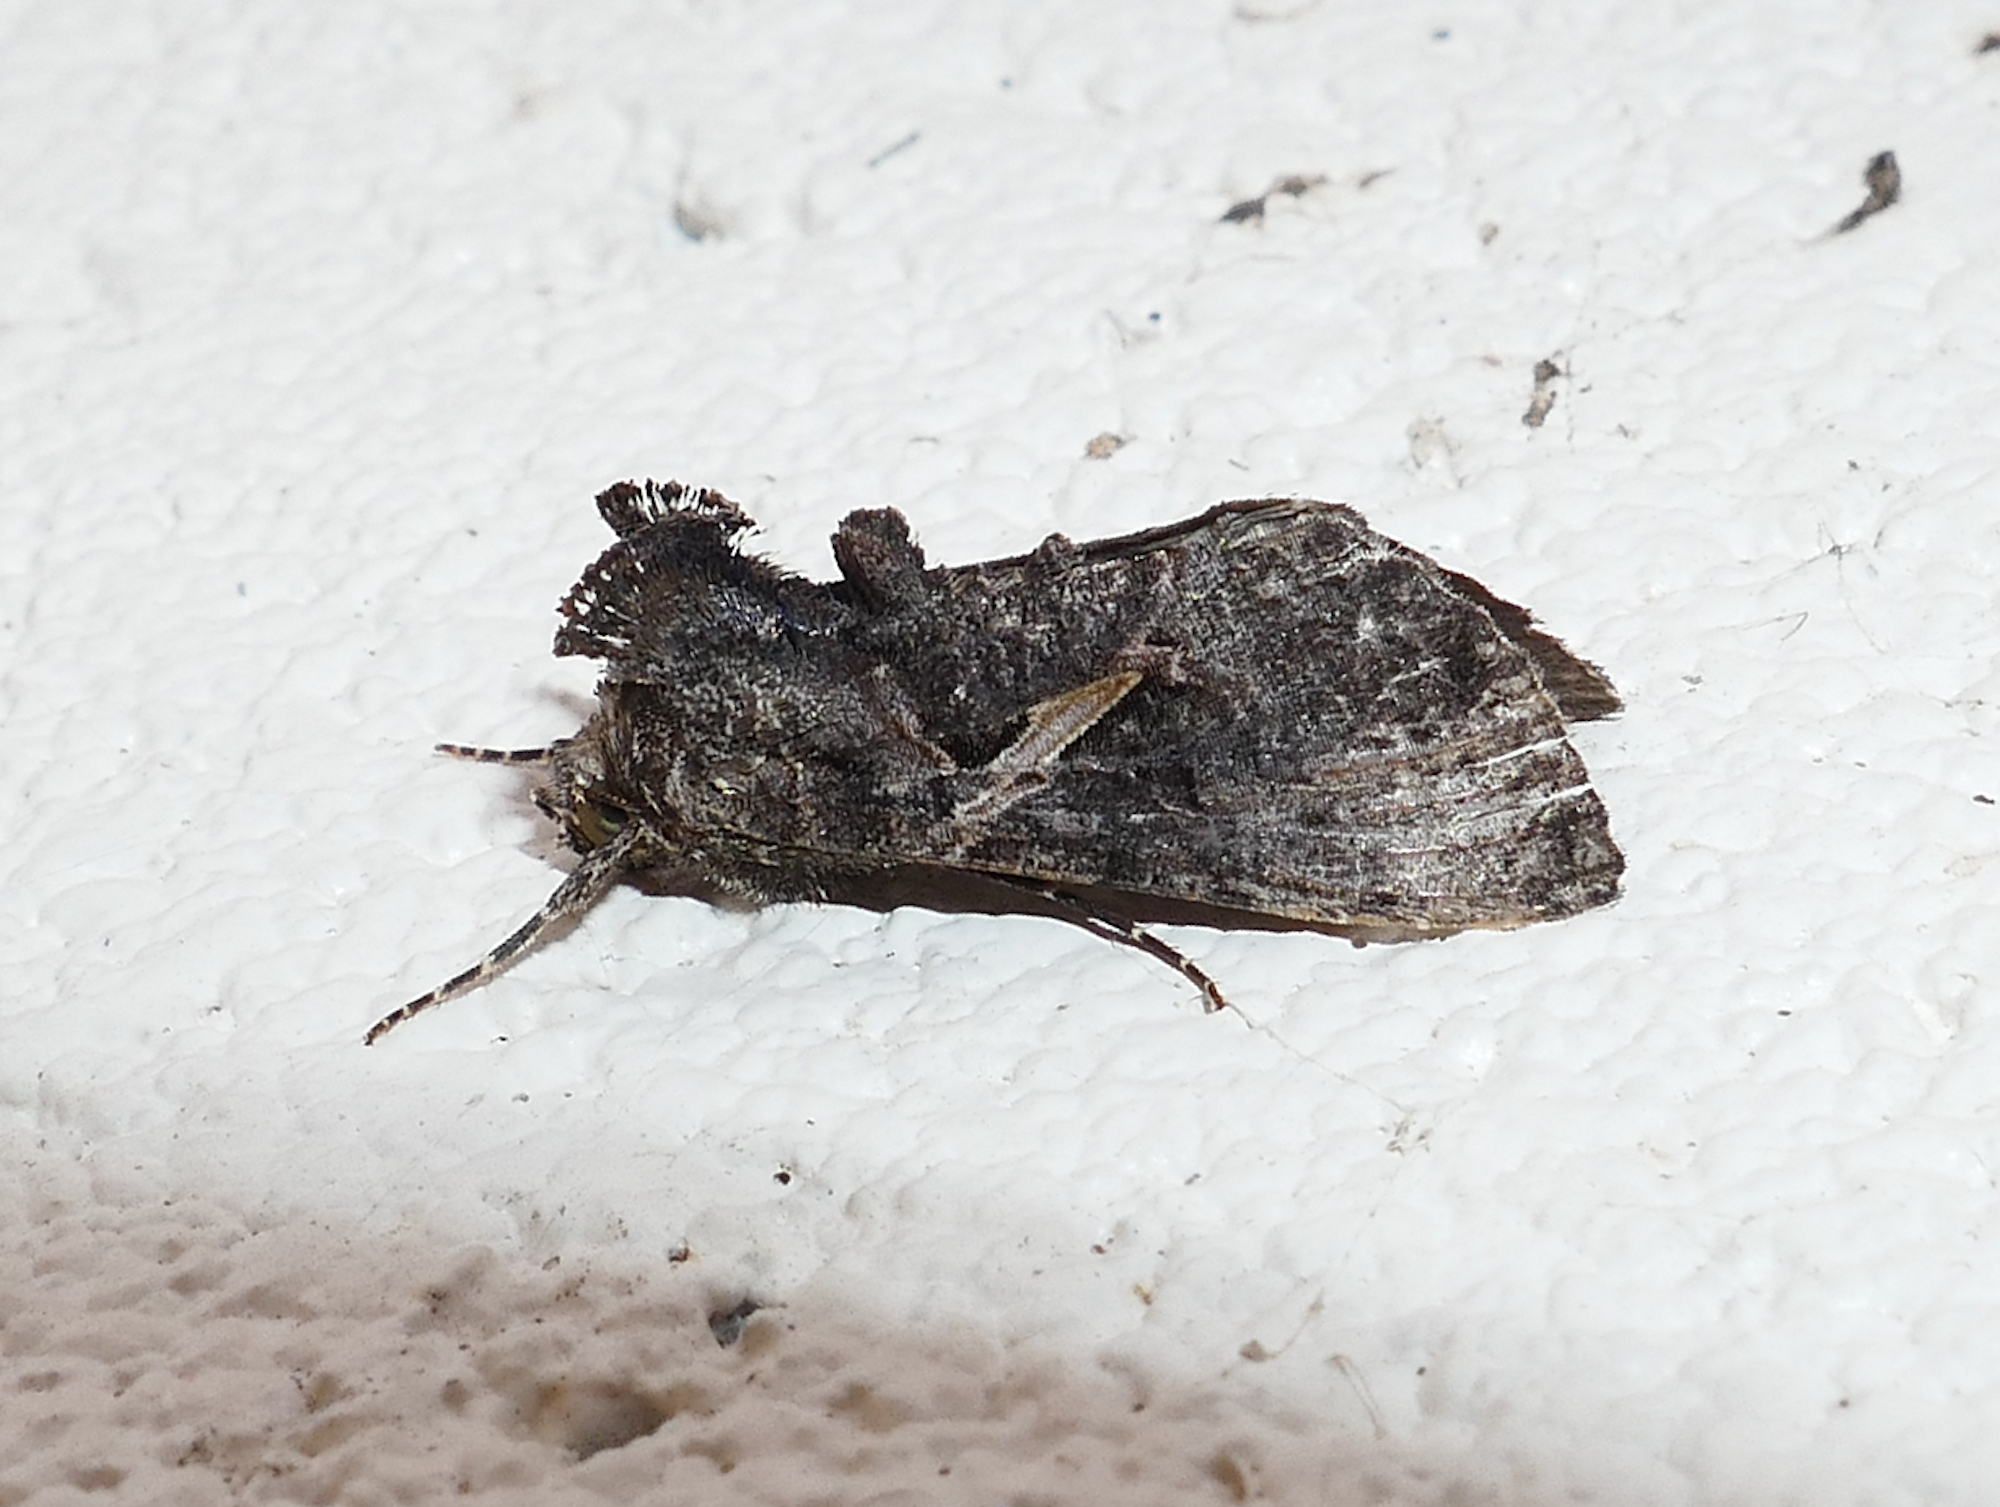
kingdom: Animalia
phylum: Arthropoda
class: Insecta
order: Lepidoptera
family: Noctuidae
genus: Ctenoplusia
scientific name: Ctenoplusia oxygramma
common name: Sharp-stigma looper moth
